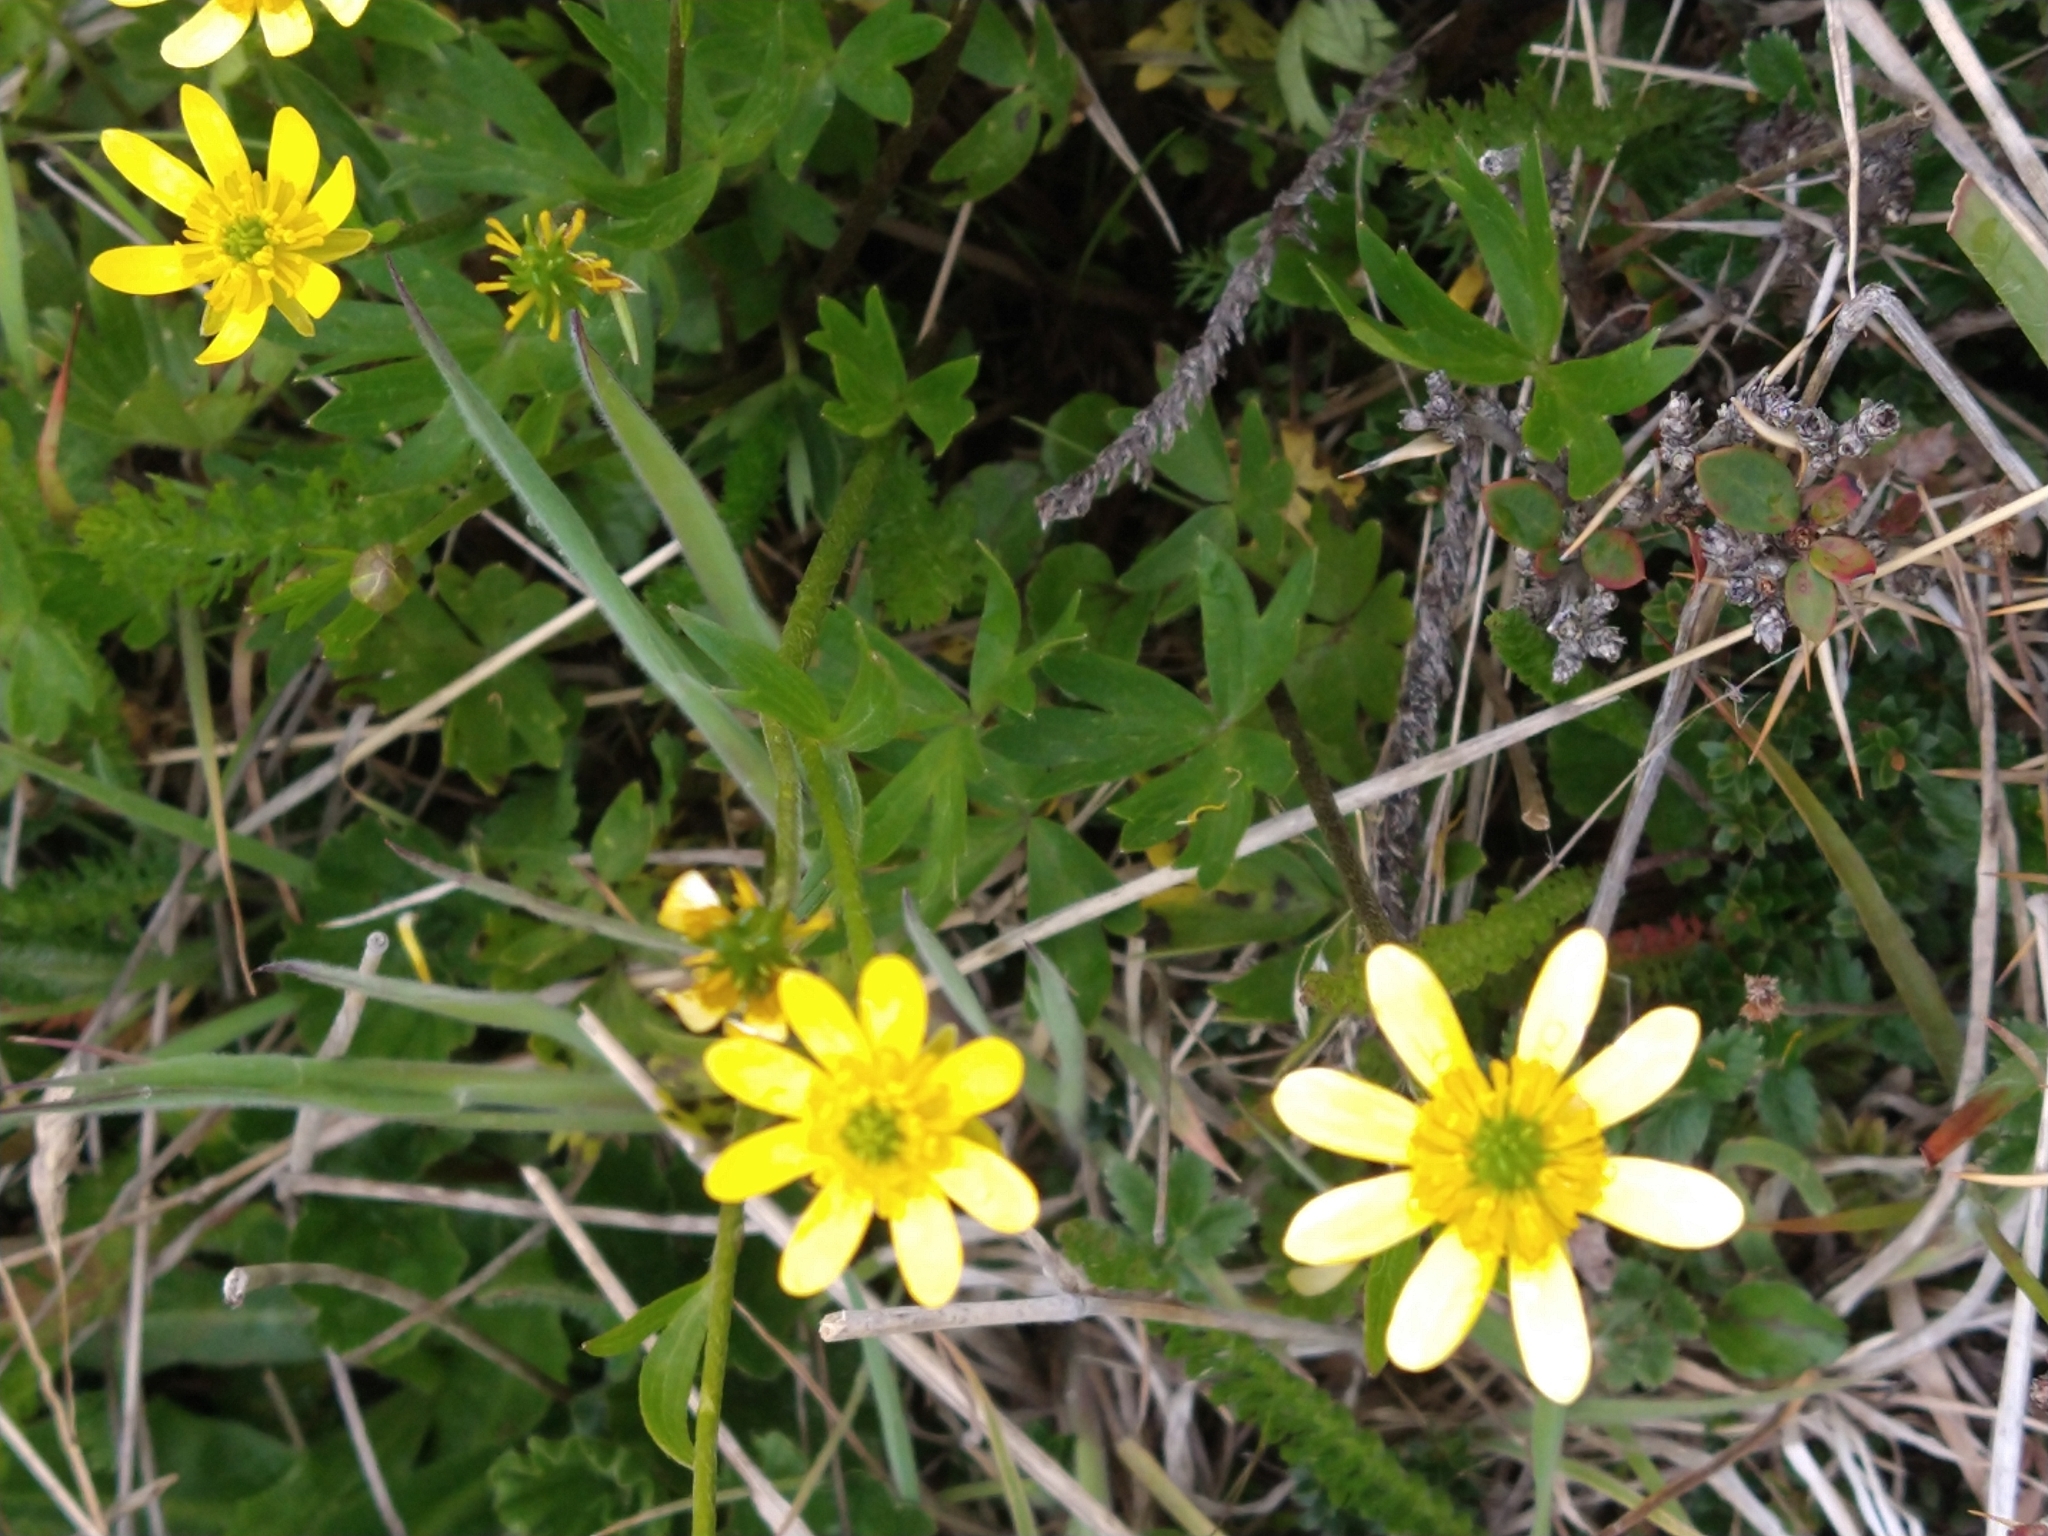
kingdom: Plantae
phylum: Tracheophyta
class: Magnoliopsida
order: Ranunculales
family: Ranunculaceae
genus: Ranunculus
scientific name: Ranunculus peduncularis
